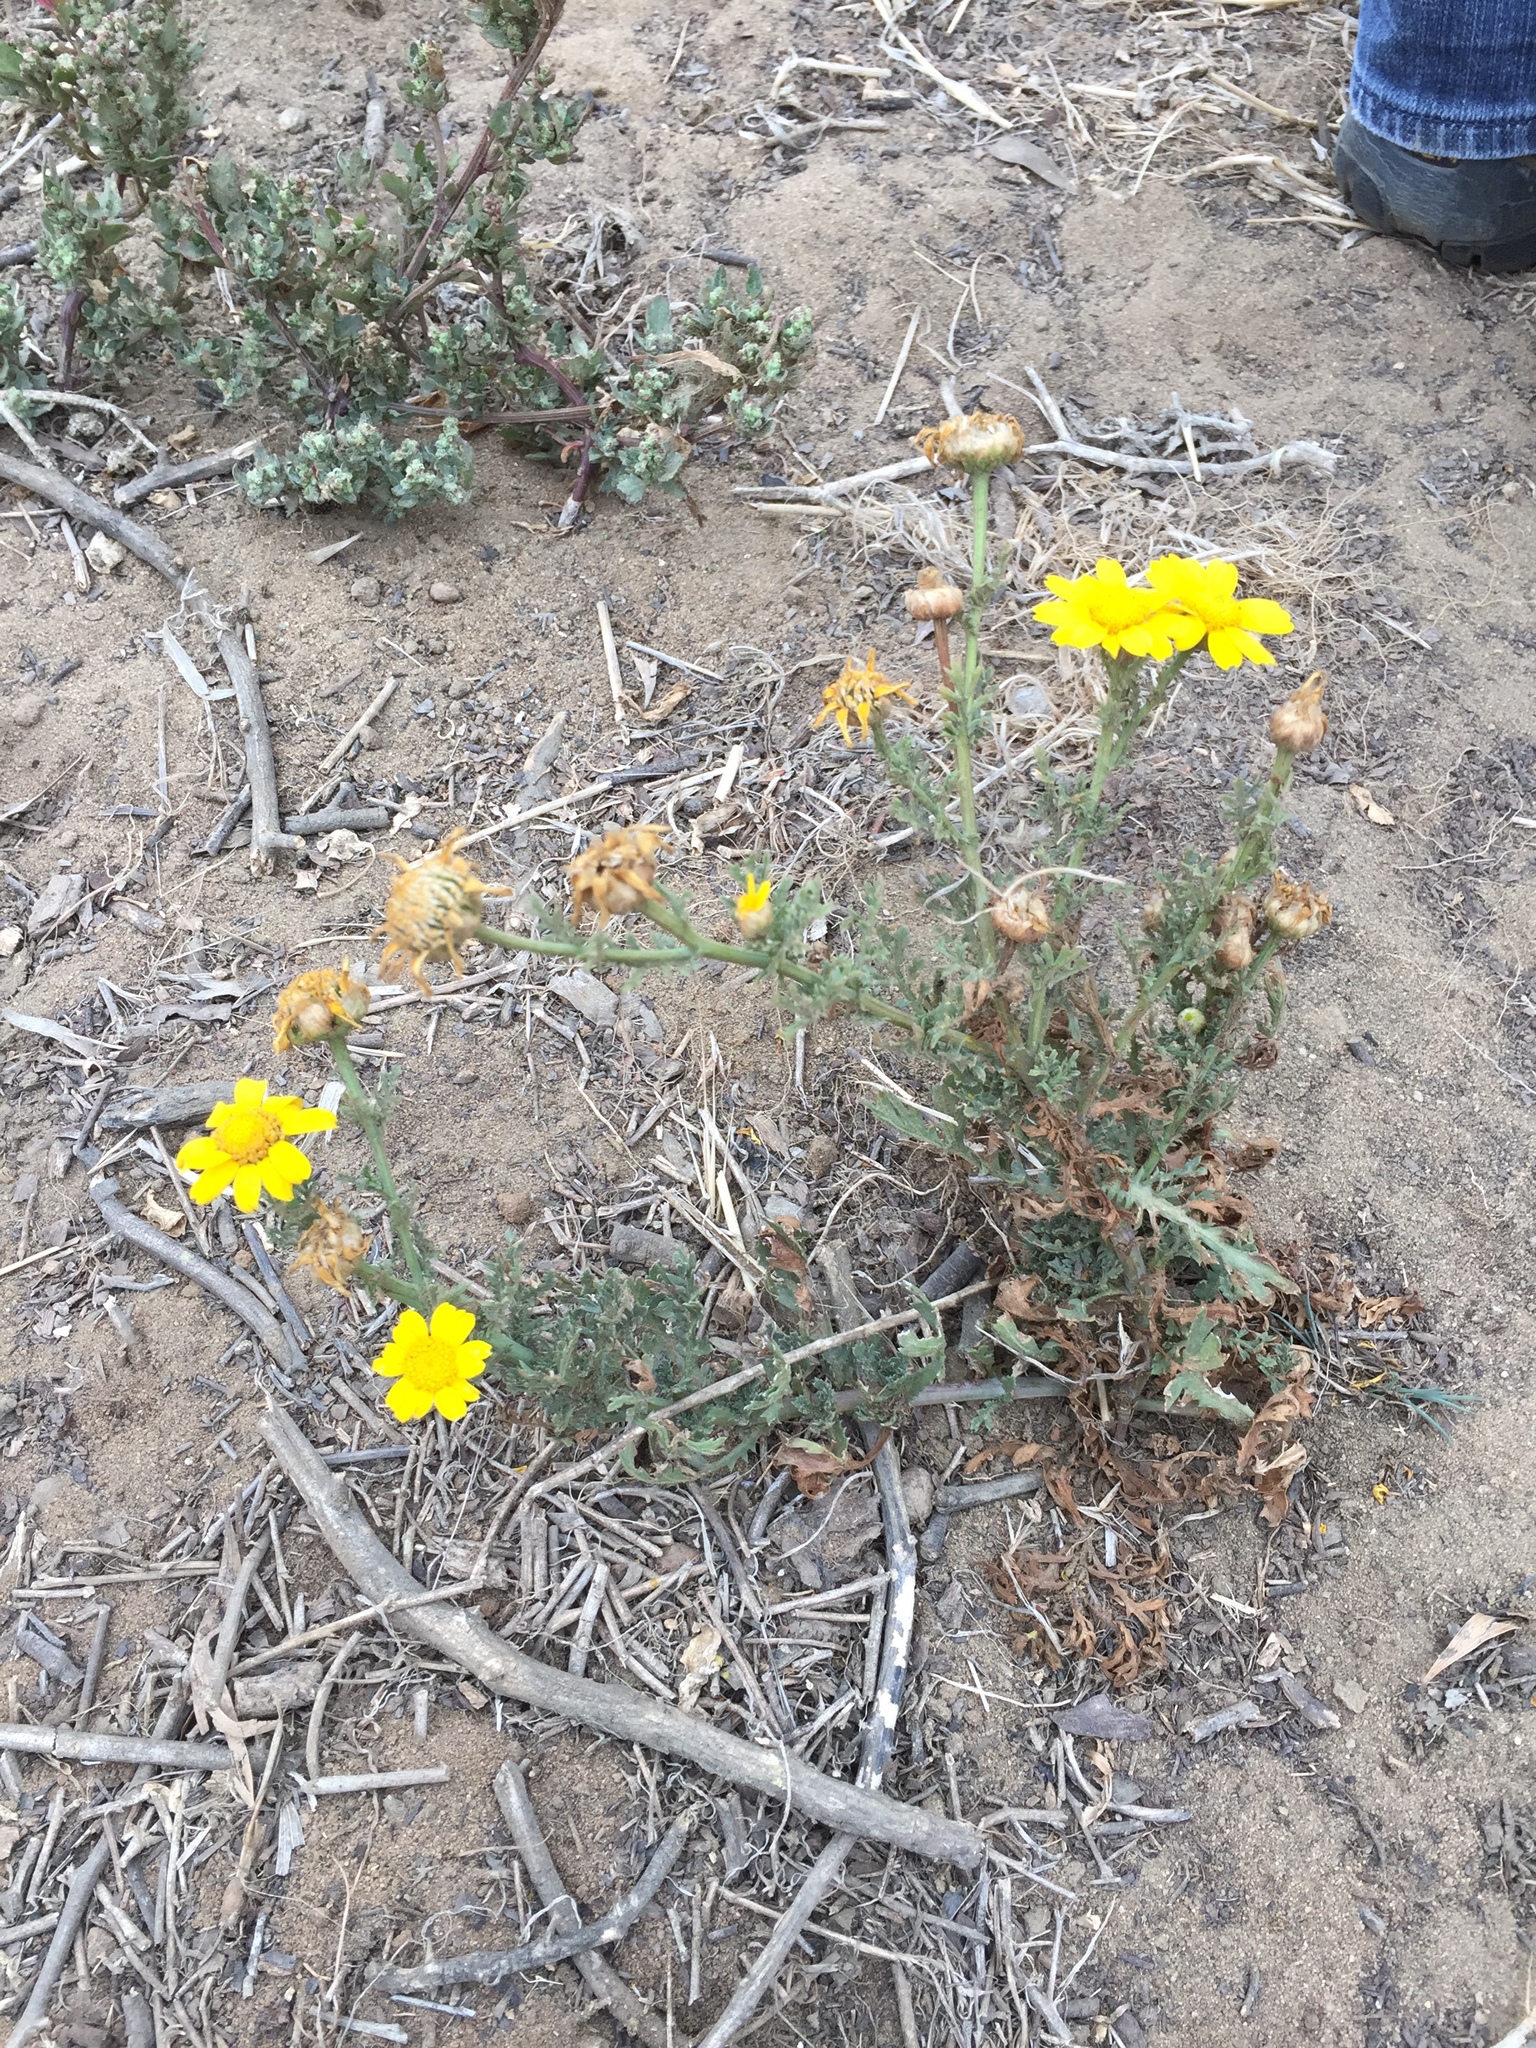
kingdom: Plantae
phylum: Tracheophyta
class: Magnoliopsida
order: Asterales
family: Asteraceae
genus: Glebionis
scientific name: Glebionis coronaria
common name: Crowndaisy
